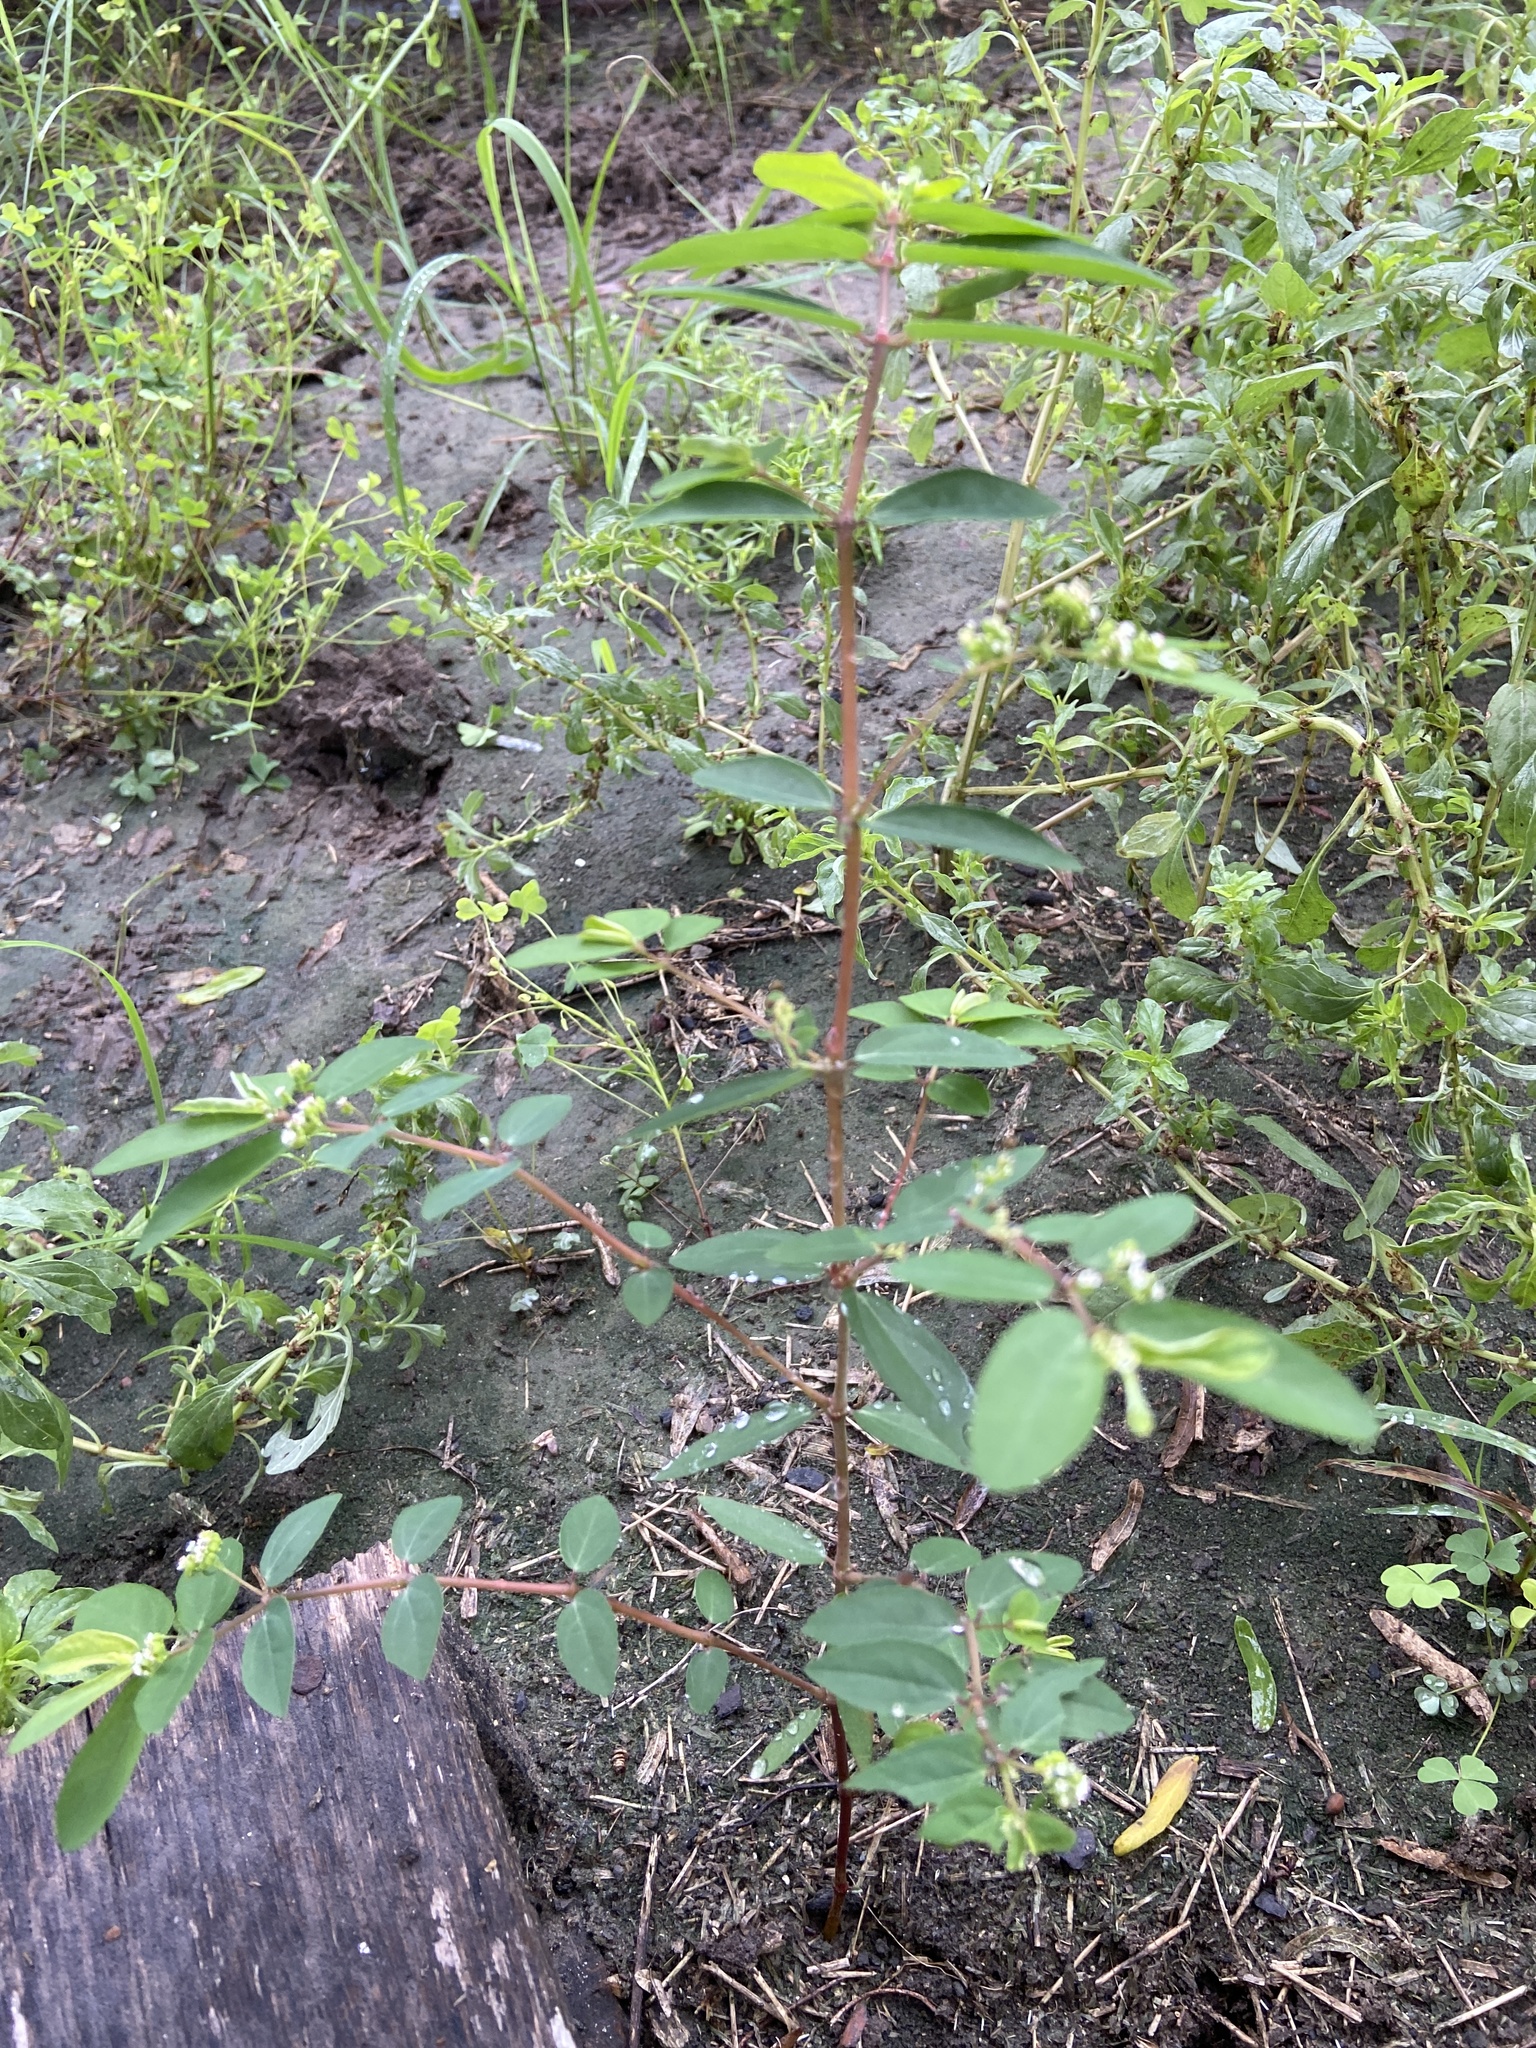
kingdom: Plantae
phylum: Tracheophyta
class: Magnoliopsida
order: Malpighiales
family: Euphorbiaceae
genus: Euphorbia
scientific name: Euphorbia hypericifolia
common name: Graceful sandmat
